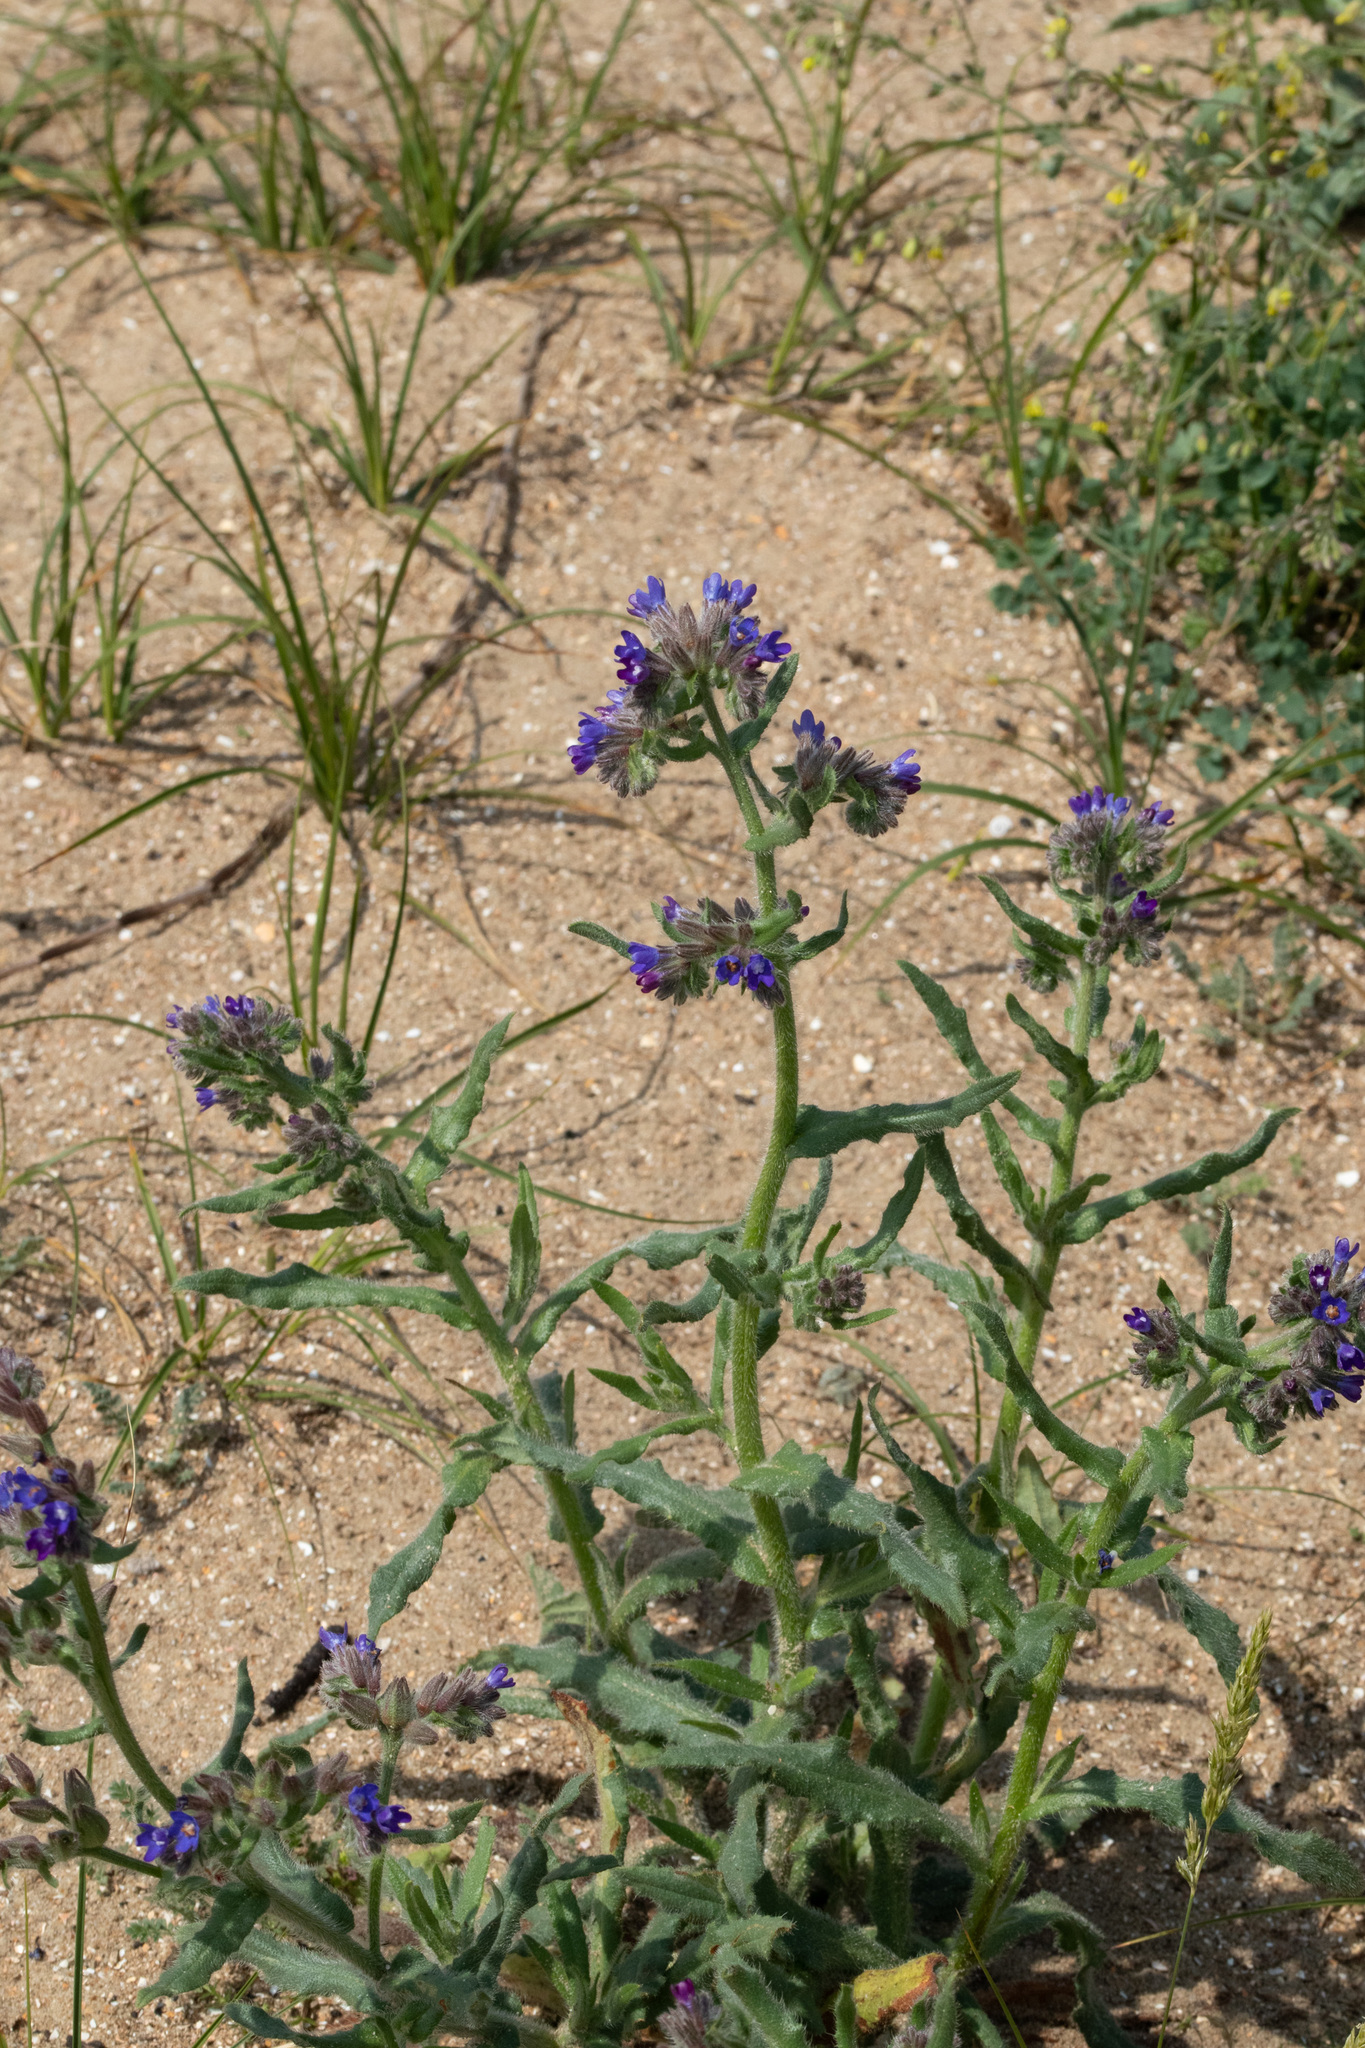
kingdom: Plantae
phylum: Tracheophyta
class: Magnoliopsida
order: Boraginales
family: Boraginaceae
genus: Anchusa
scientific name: Anchusa officinalis
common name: Alkanet
